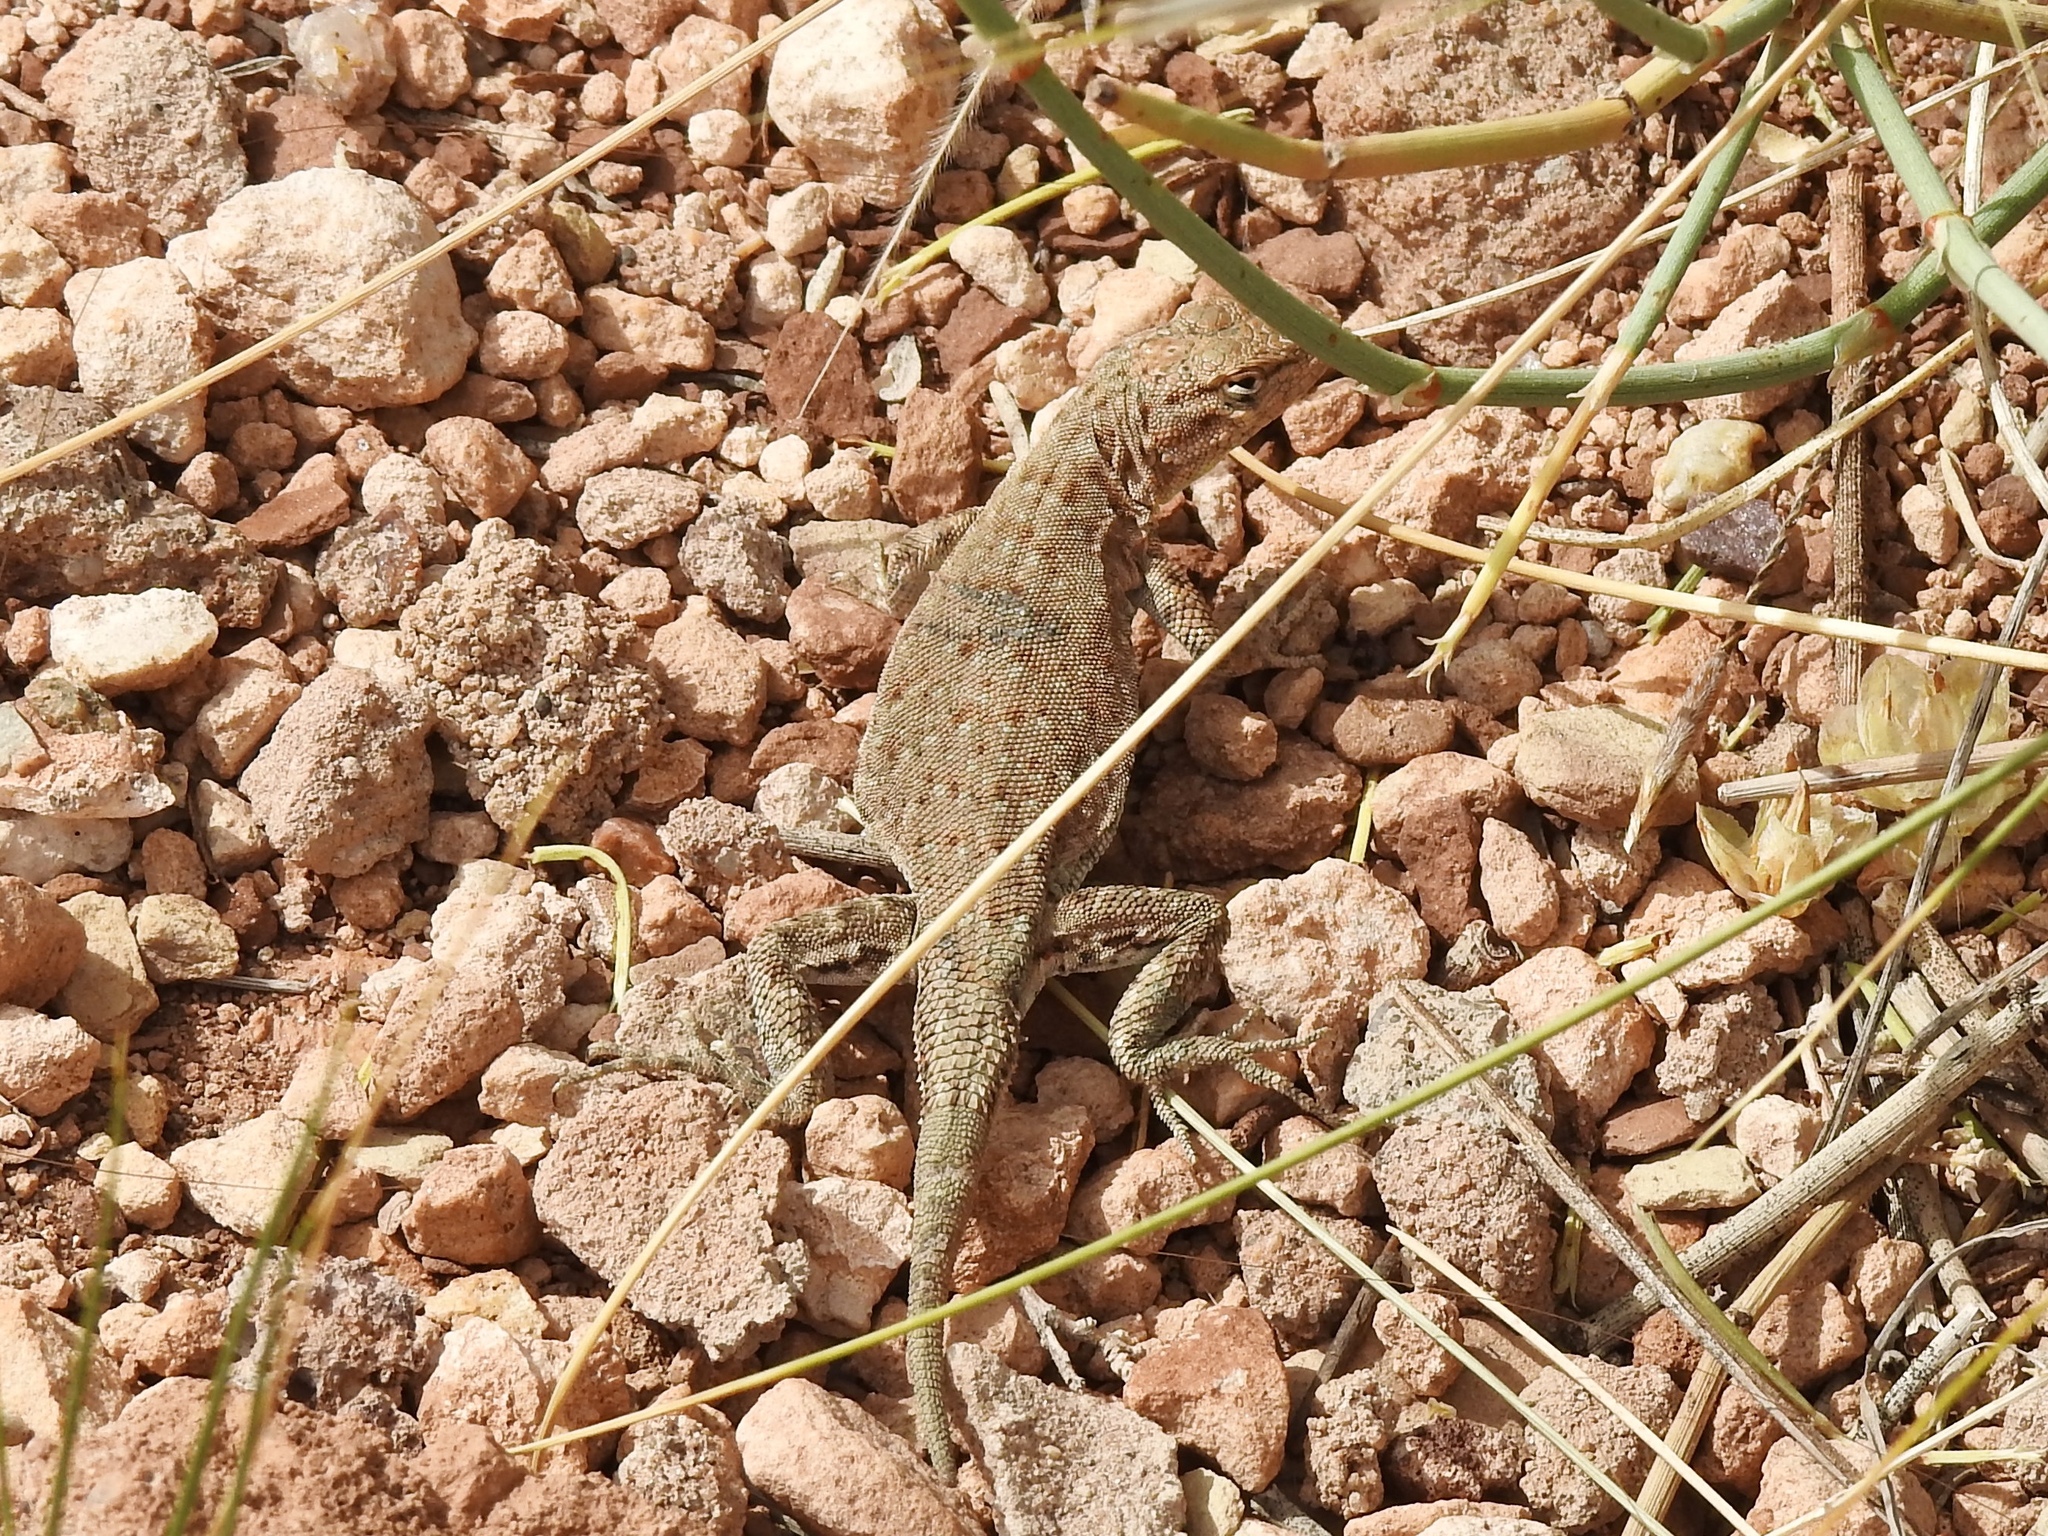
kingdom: Animalia
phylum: Chordata
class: Squamata
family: Phrynosomatidae
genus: Uta
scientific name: Uta stansburiana
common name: Side-blotched lizard
